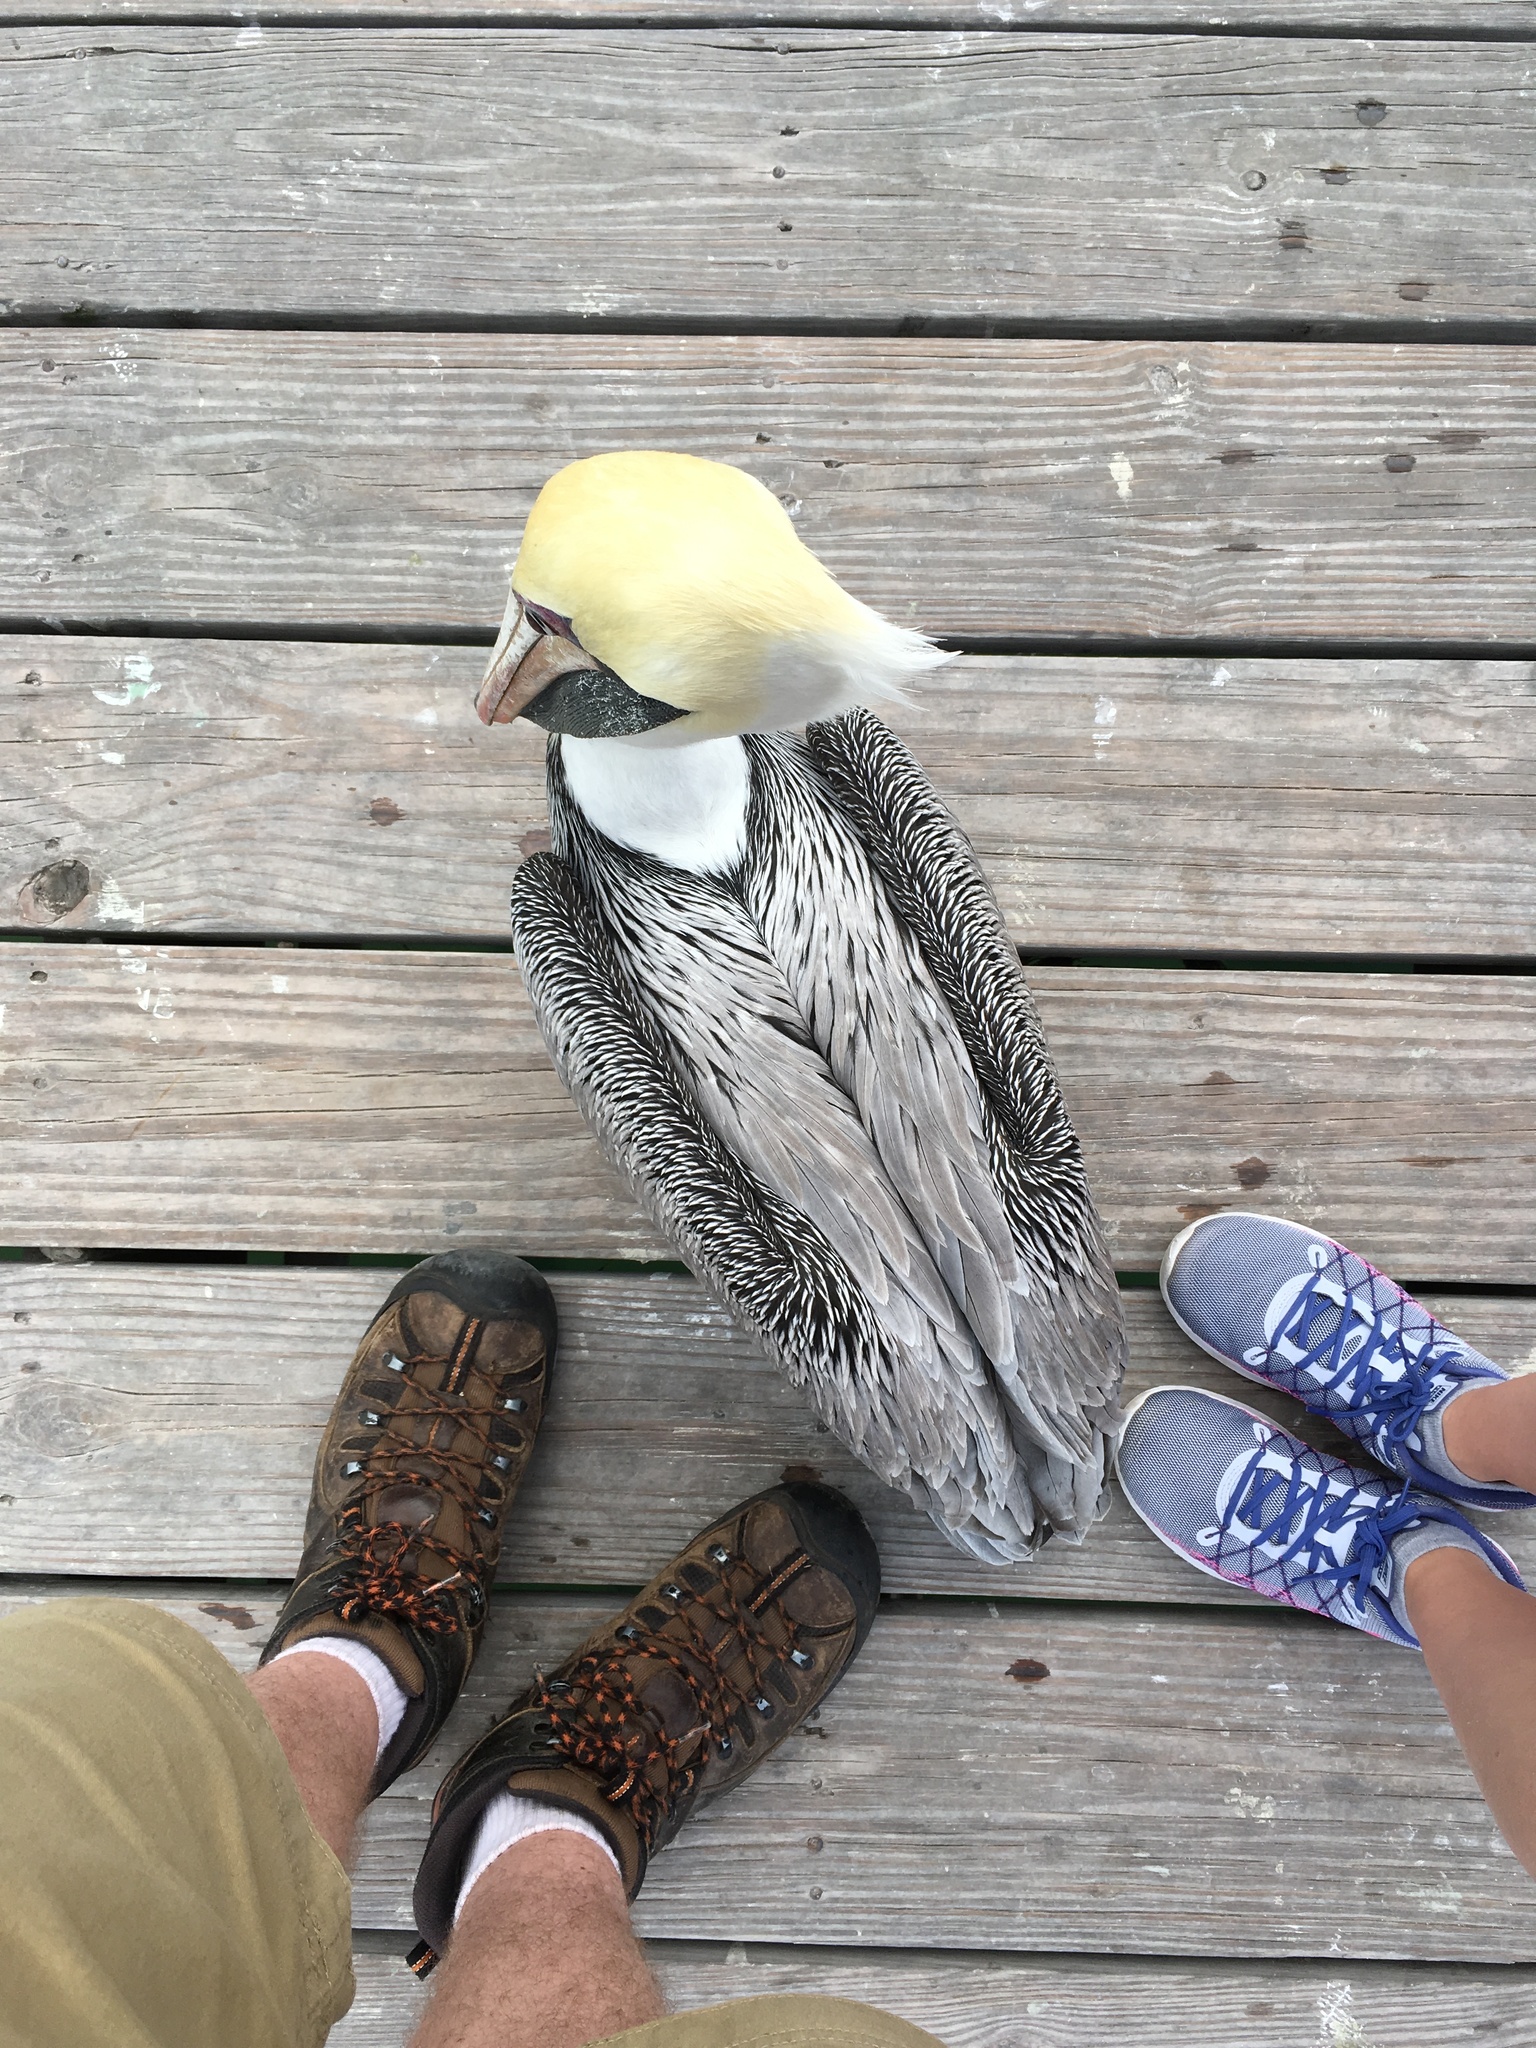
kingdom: Animalia
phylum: Chordata
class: Aves
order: Pelecaniformes
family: Pelecanidae
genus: Pelecanus
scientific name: Pelecanus occidentalis
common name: Brown pelican
